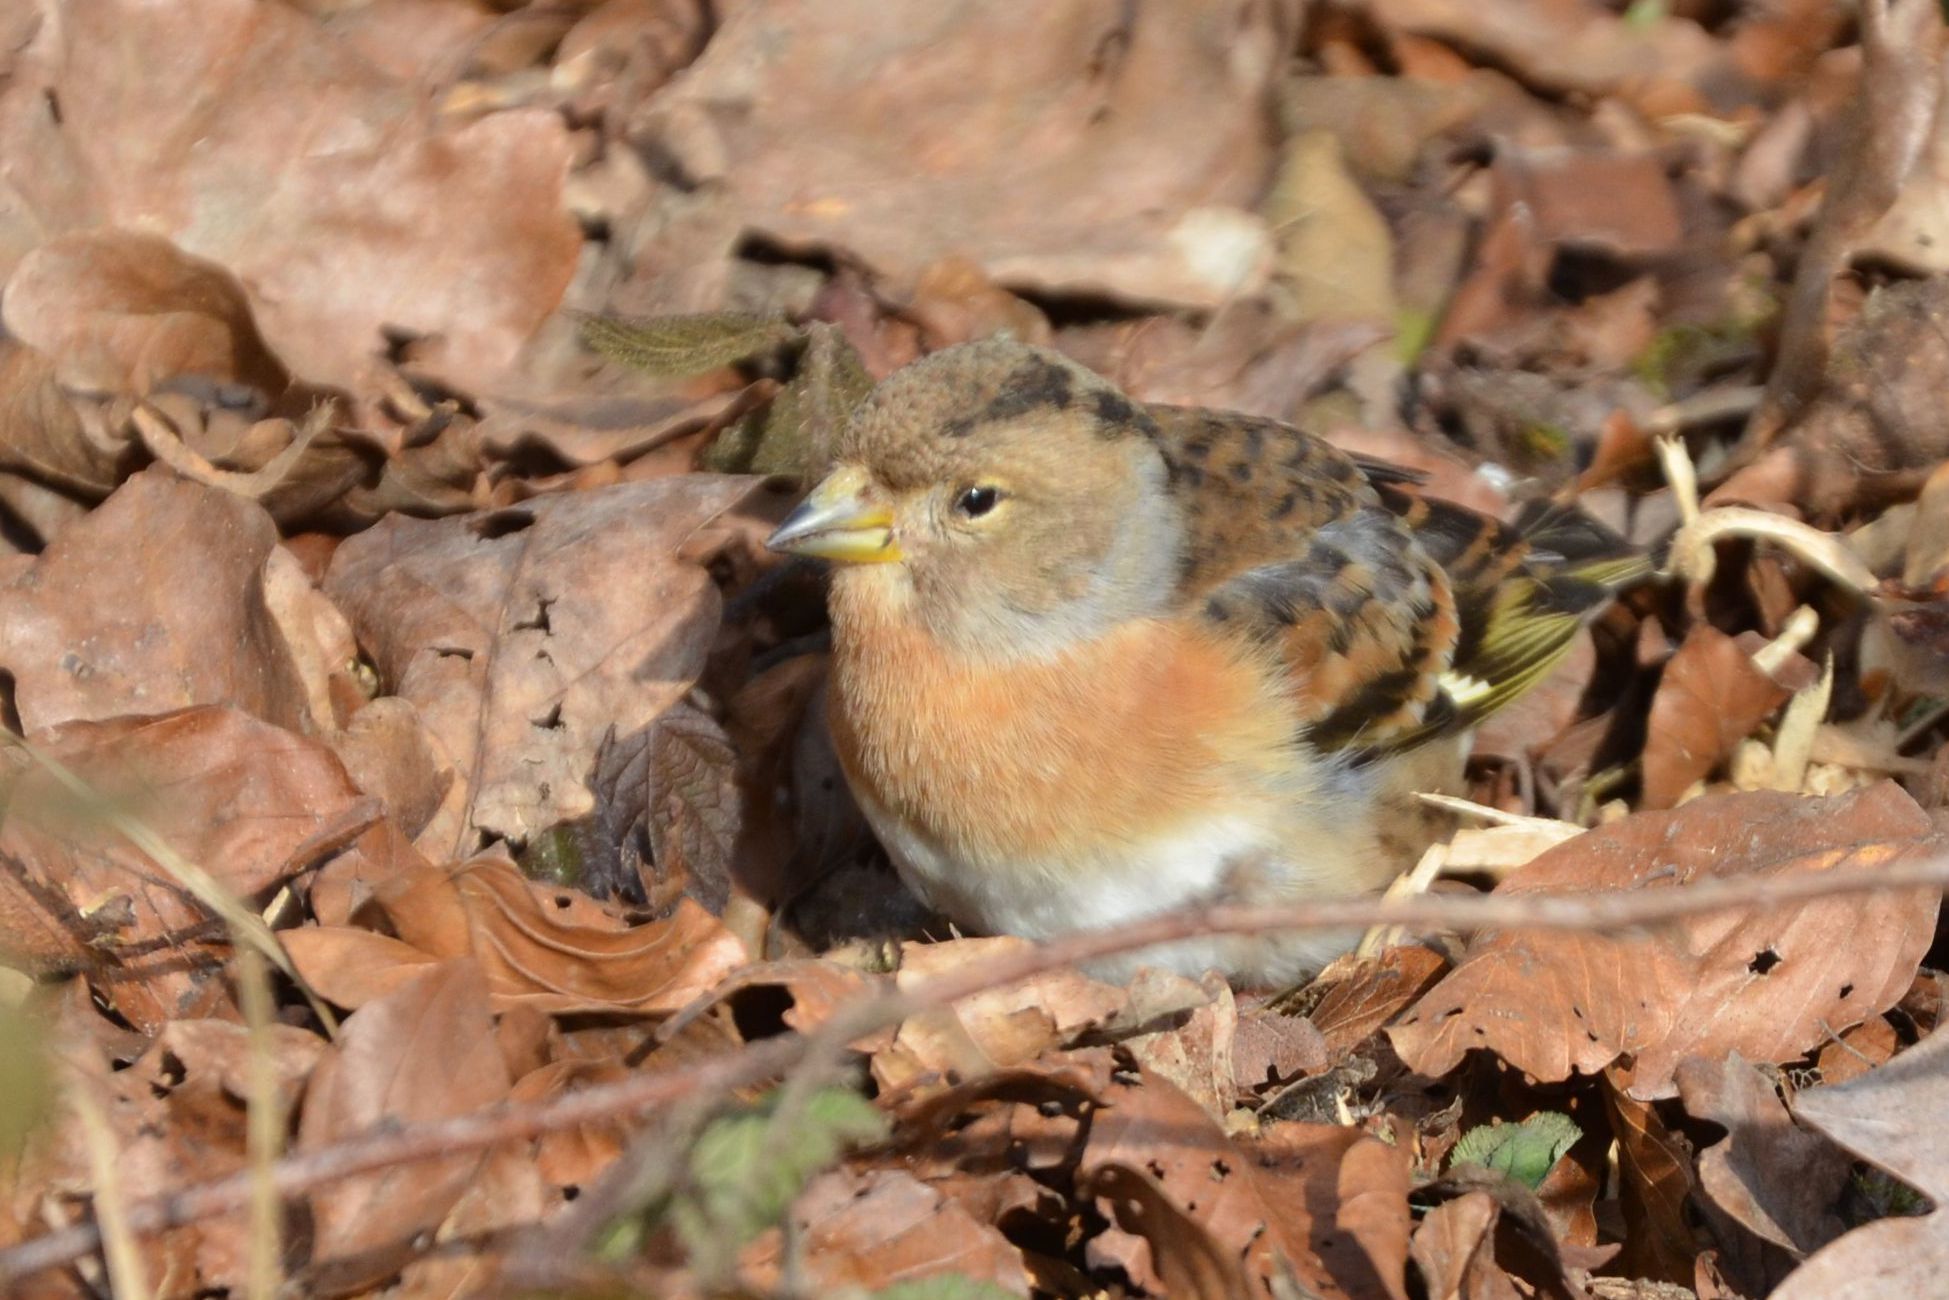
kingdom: Animalia
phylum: Chordata
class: Aves
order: Passeriformes
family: Fringillidae
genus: Fringilla
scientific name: Fringilla montifringilla
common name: Brambling
